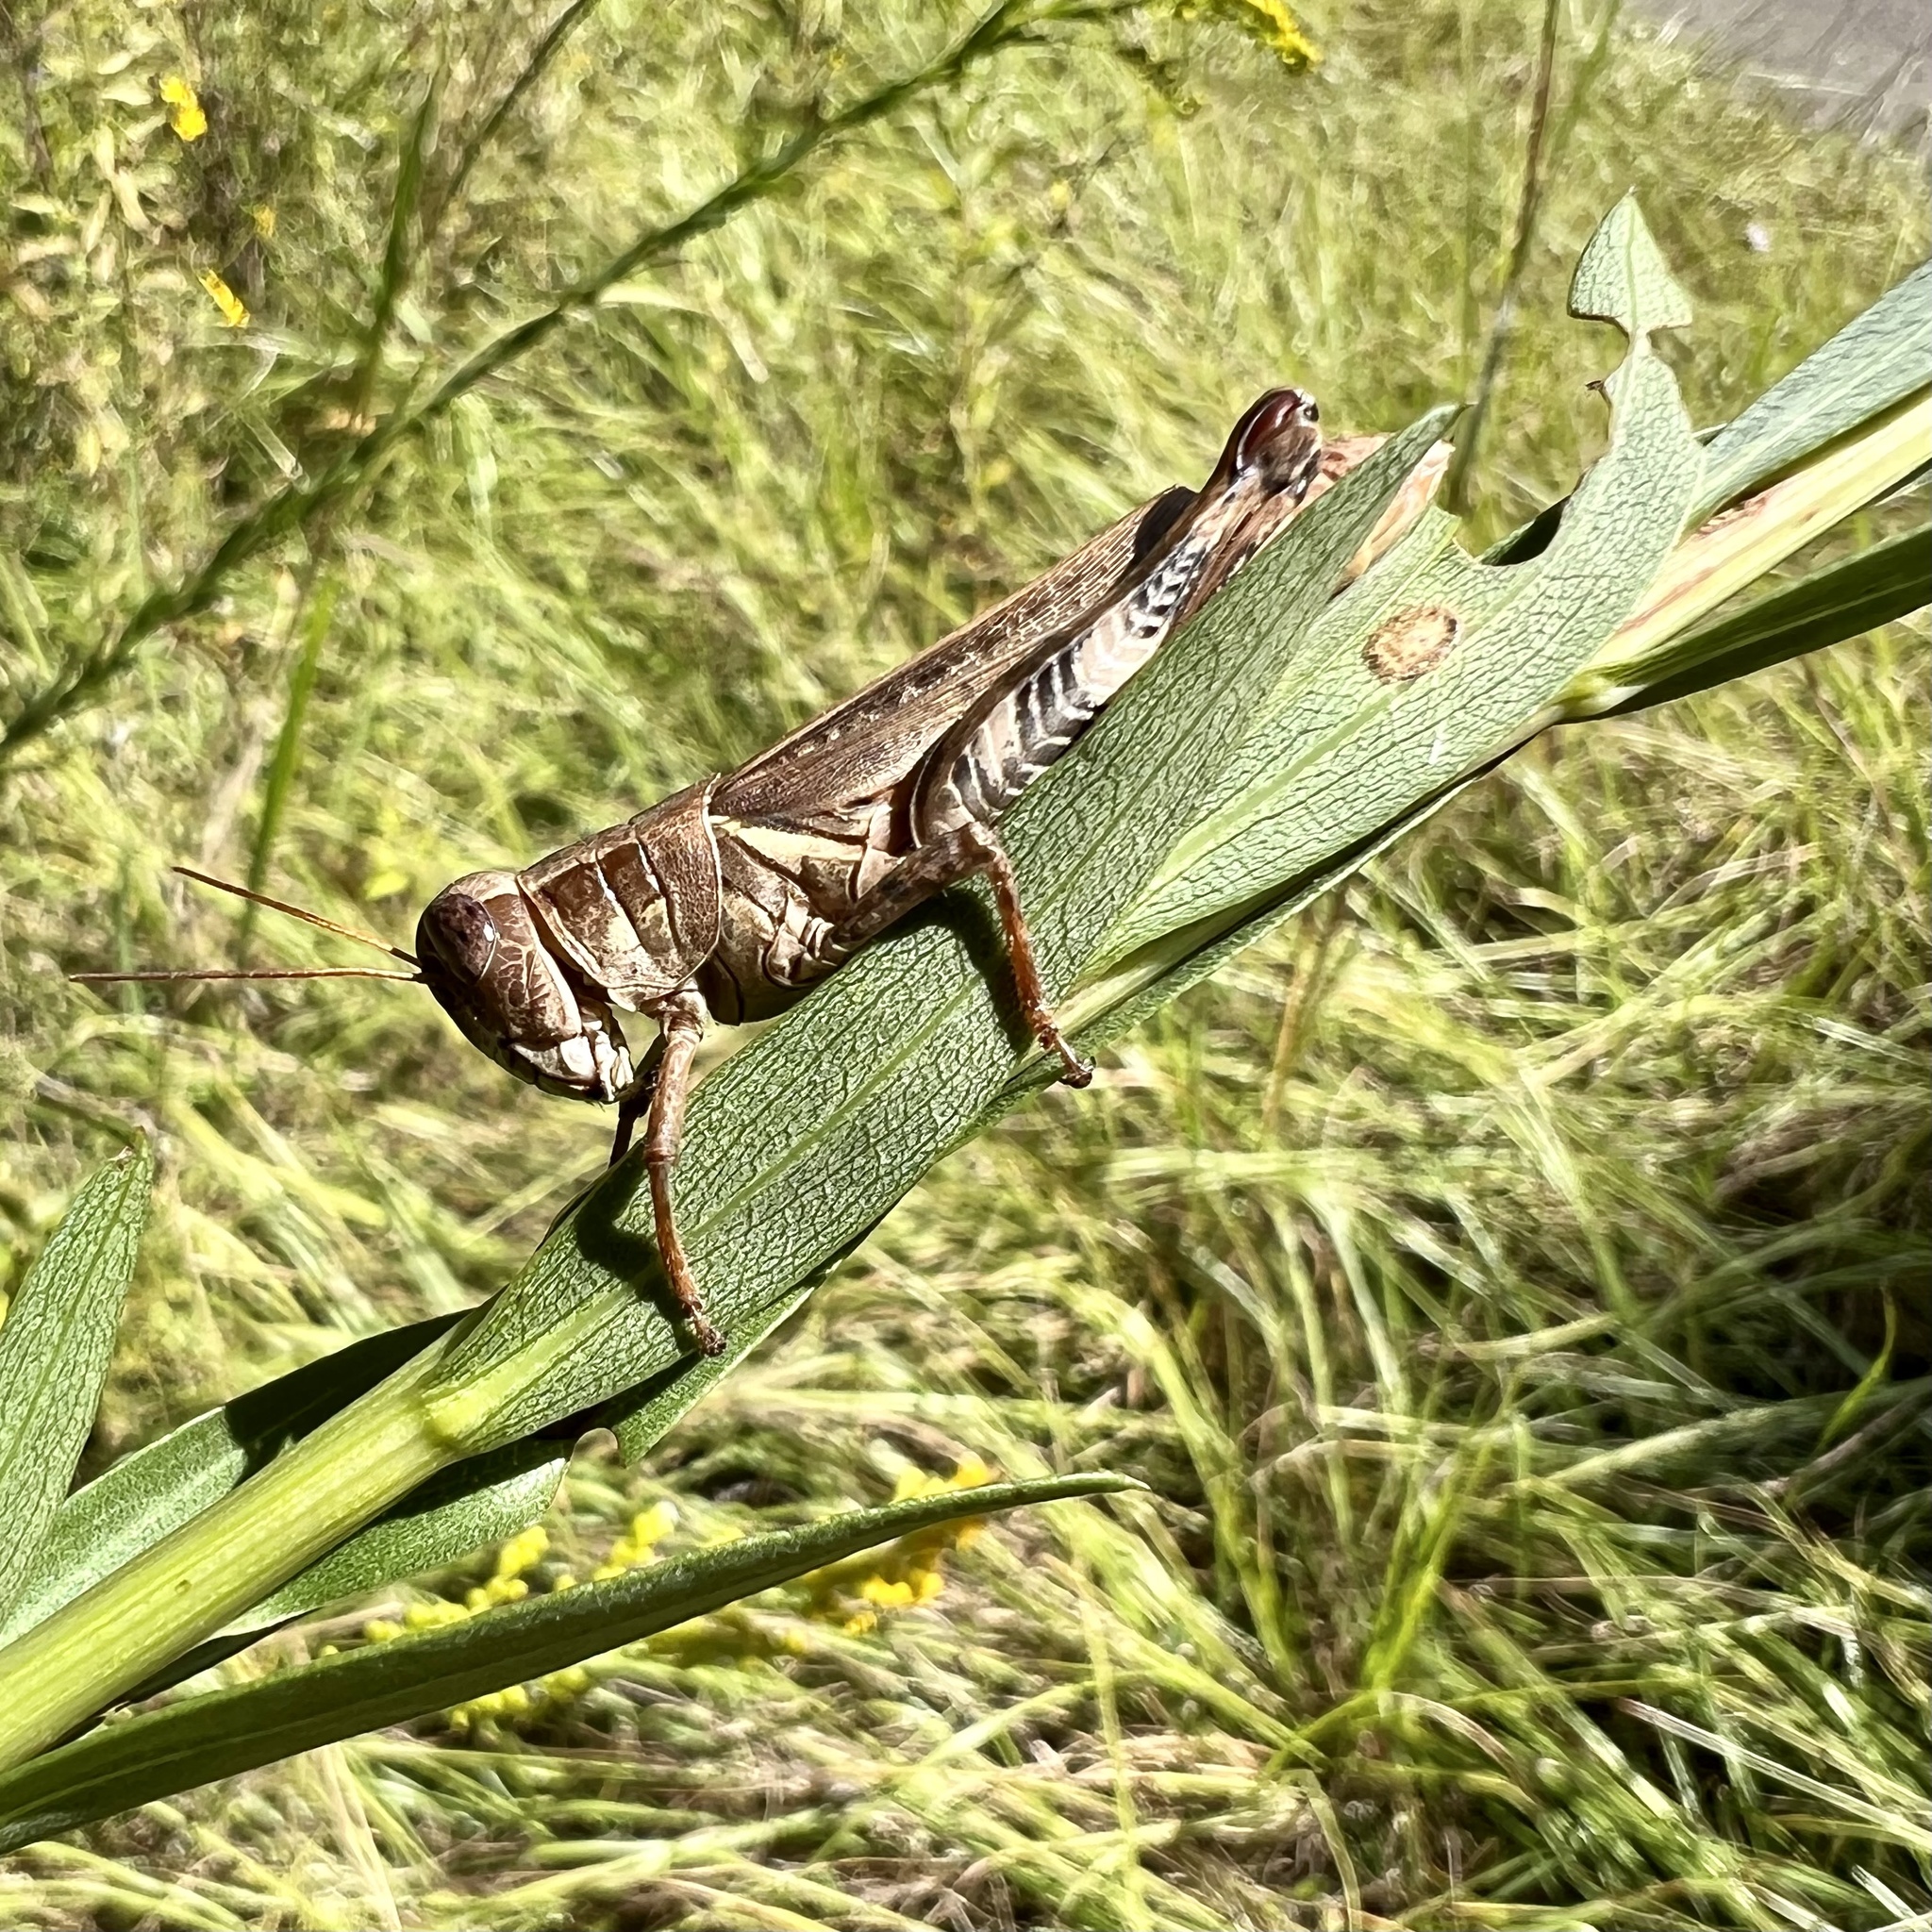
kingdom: Animalia
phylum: Arthropoda
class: Insecta
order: Orthoptera
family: Acrididae
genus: Melanoplus
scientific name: Melanoplus ponderosus
